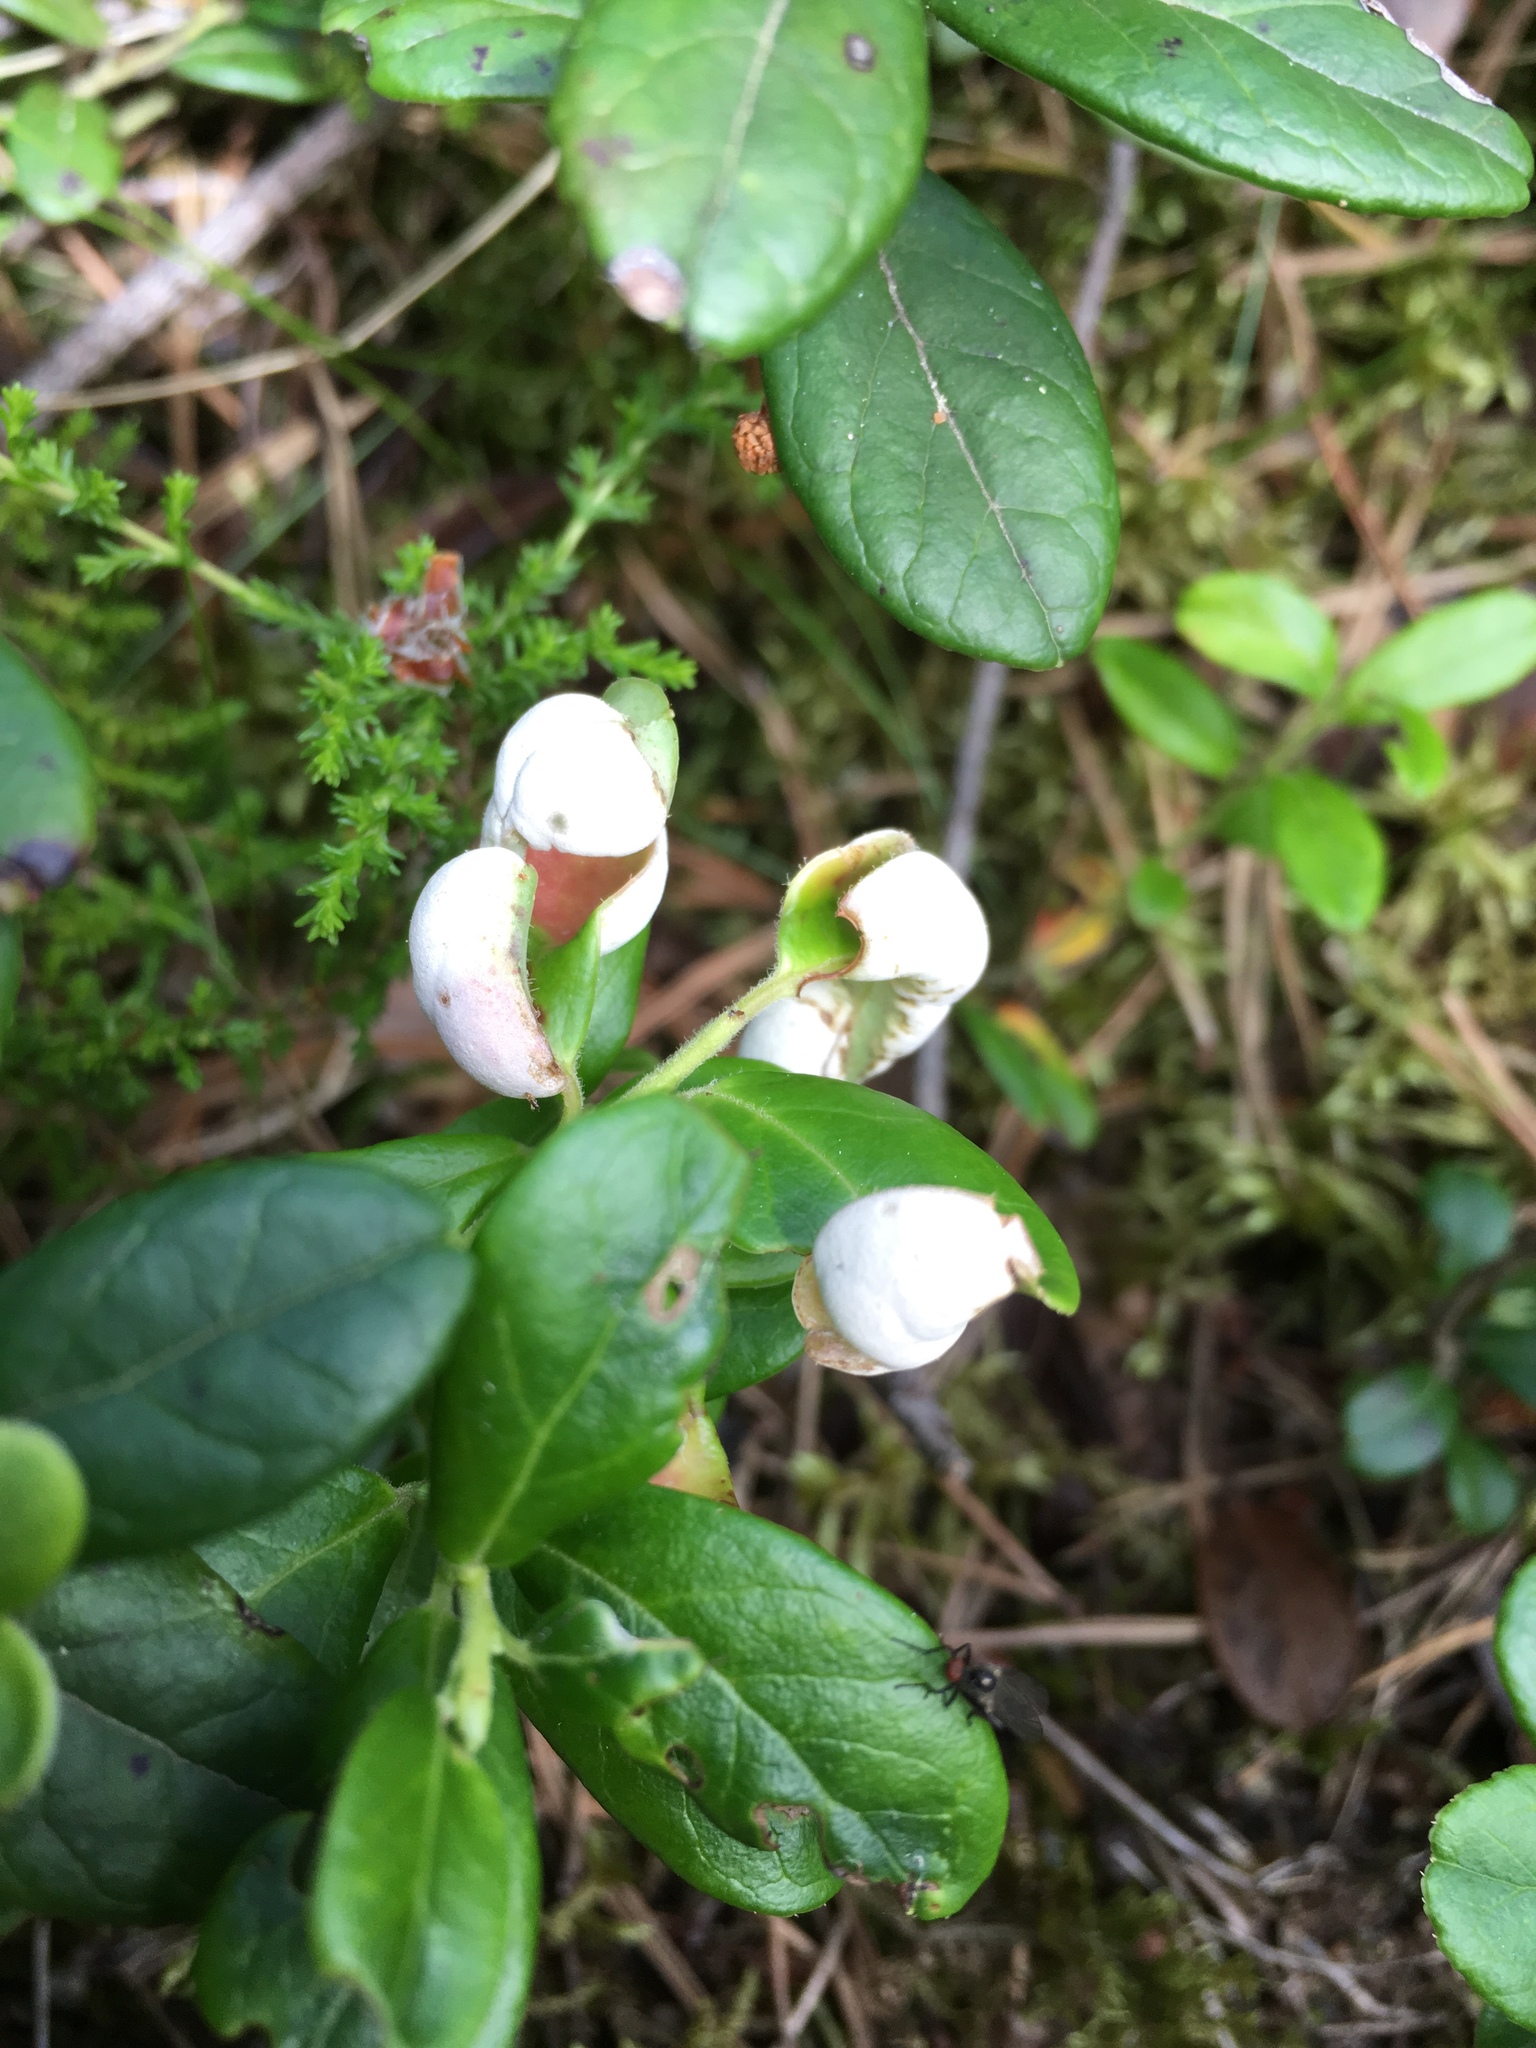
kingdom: Fungi
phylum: Basidiomycota
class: Exobasidiomycetes
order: Exobasidiales
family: Exobasidiaceae
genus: Exobasidium
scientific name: Exobasidium vaccinii
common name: Cowberry redleaf
